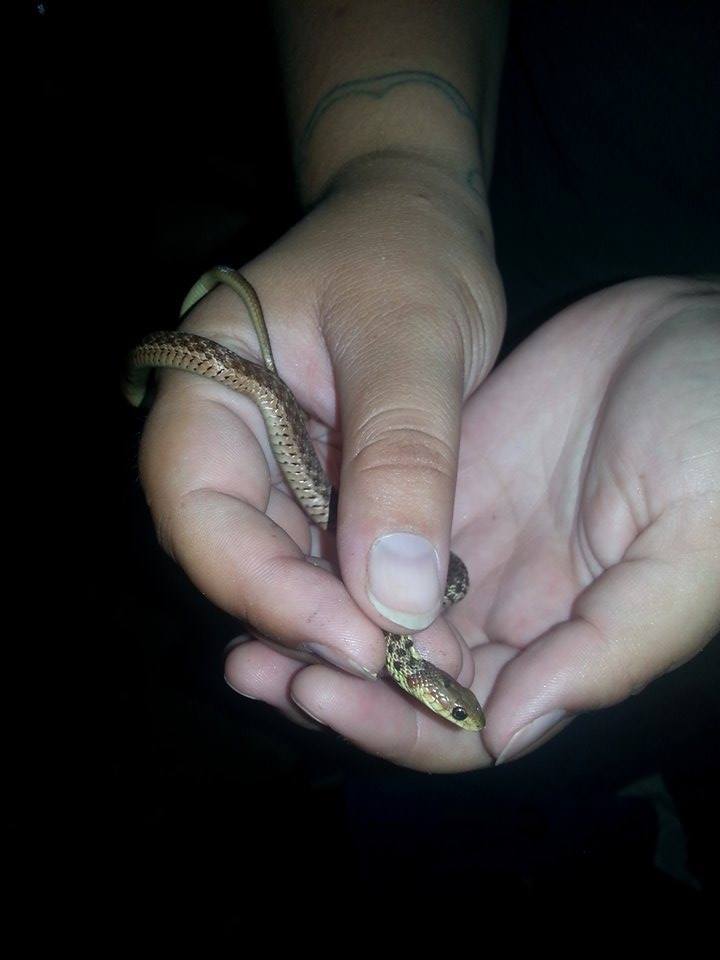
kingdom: Animalia
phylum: Chordata
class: Squamata
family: Colubridae
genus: Thamnophis
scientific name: Thamnophis sirtalis
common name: Common garter snake
